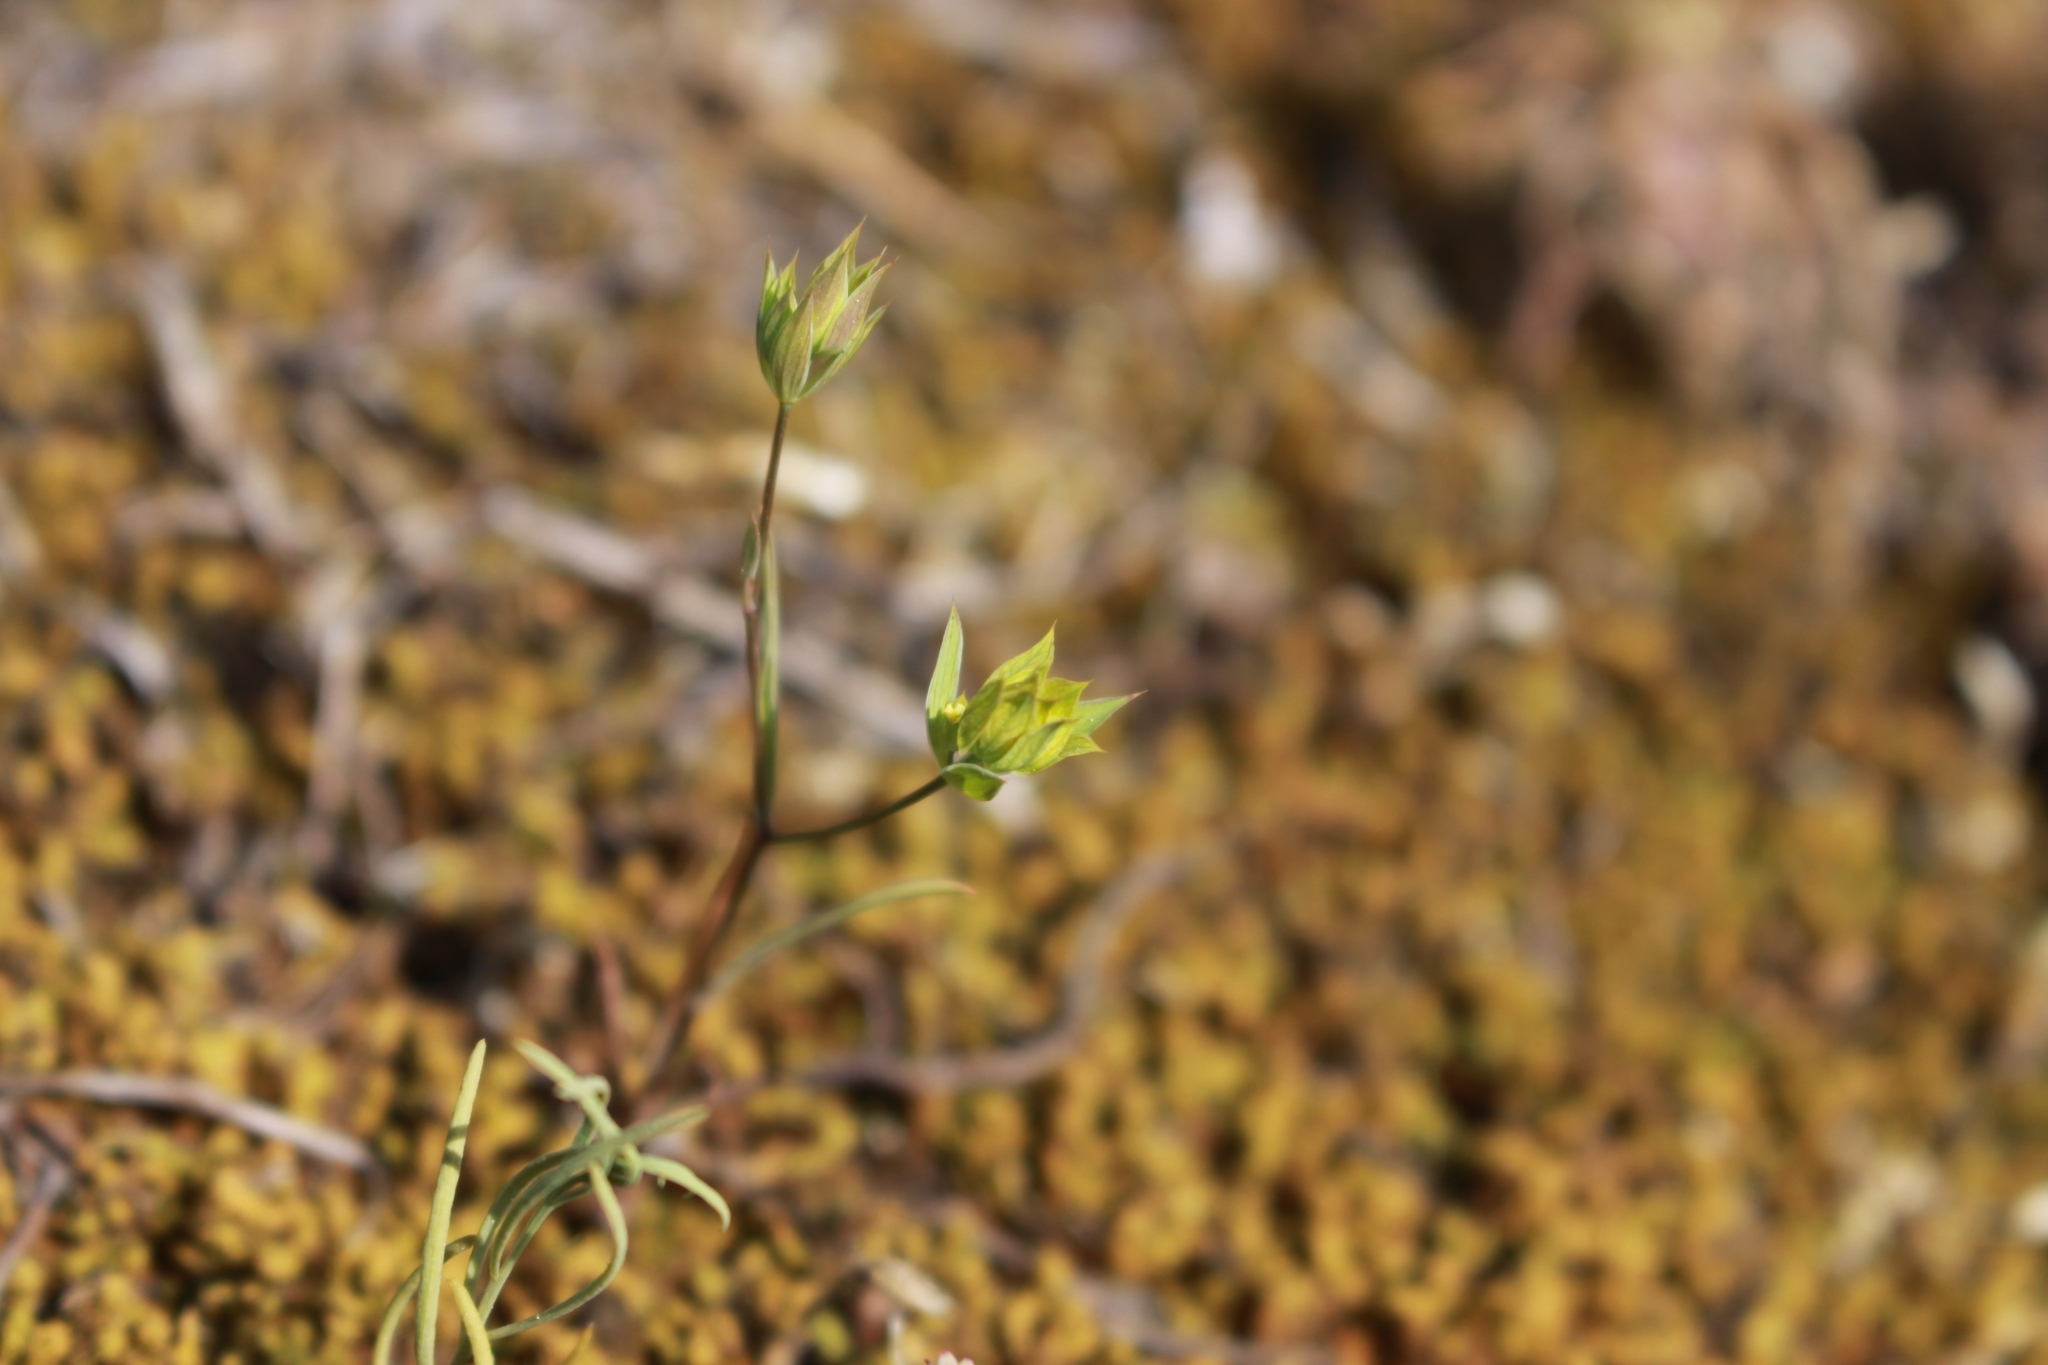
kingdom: Plantae
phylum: Tracheophyta
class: Magnoliopsida
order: Apiales
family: Apiaceae
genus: Bupleurum
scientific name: Bupleurum baldense
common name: Small hare's-ear
